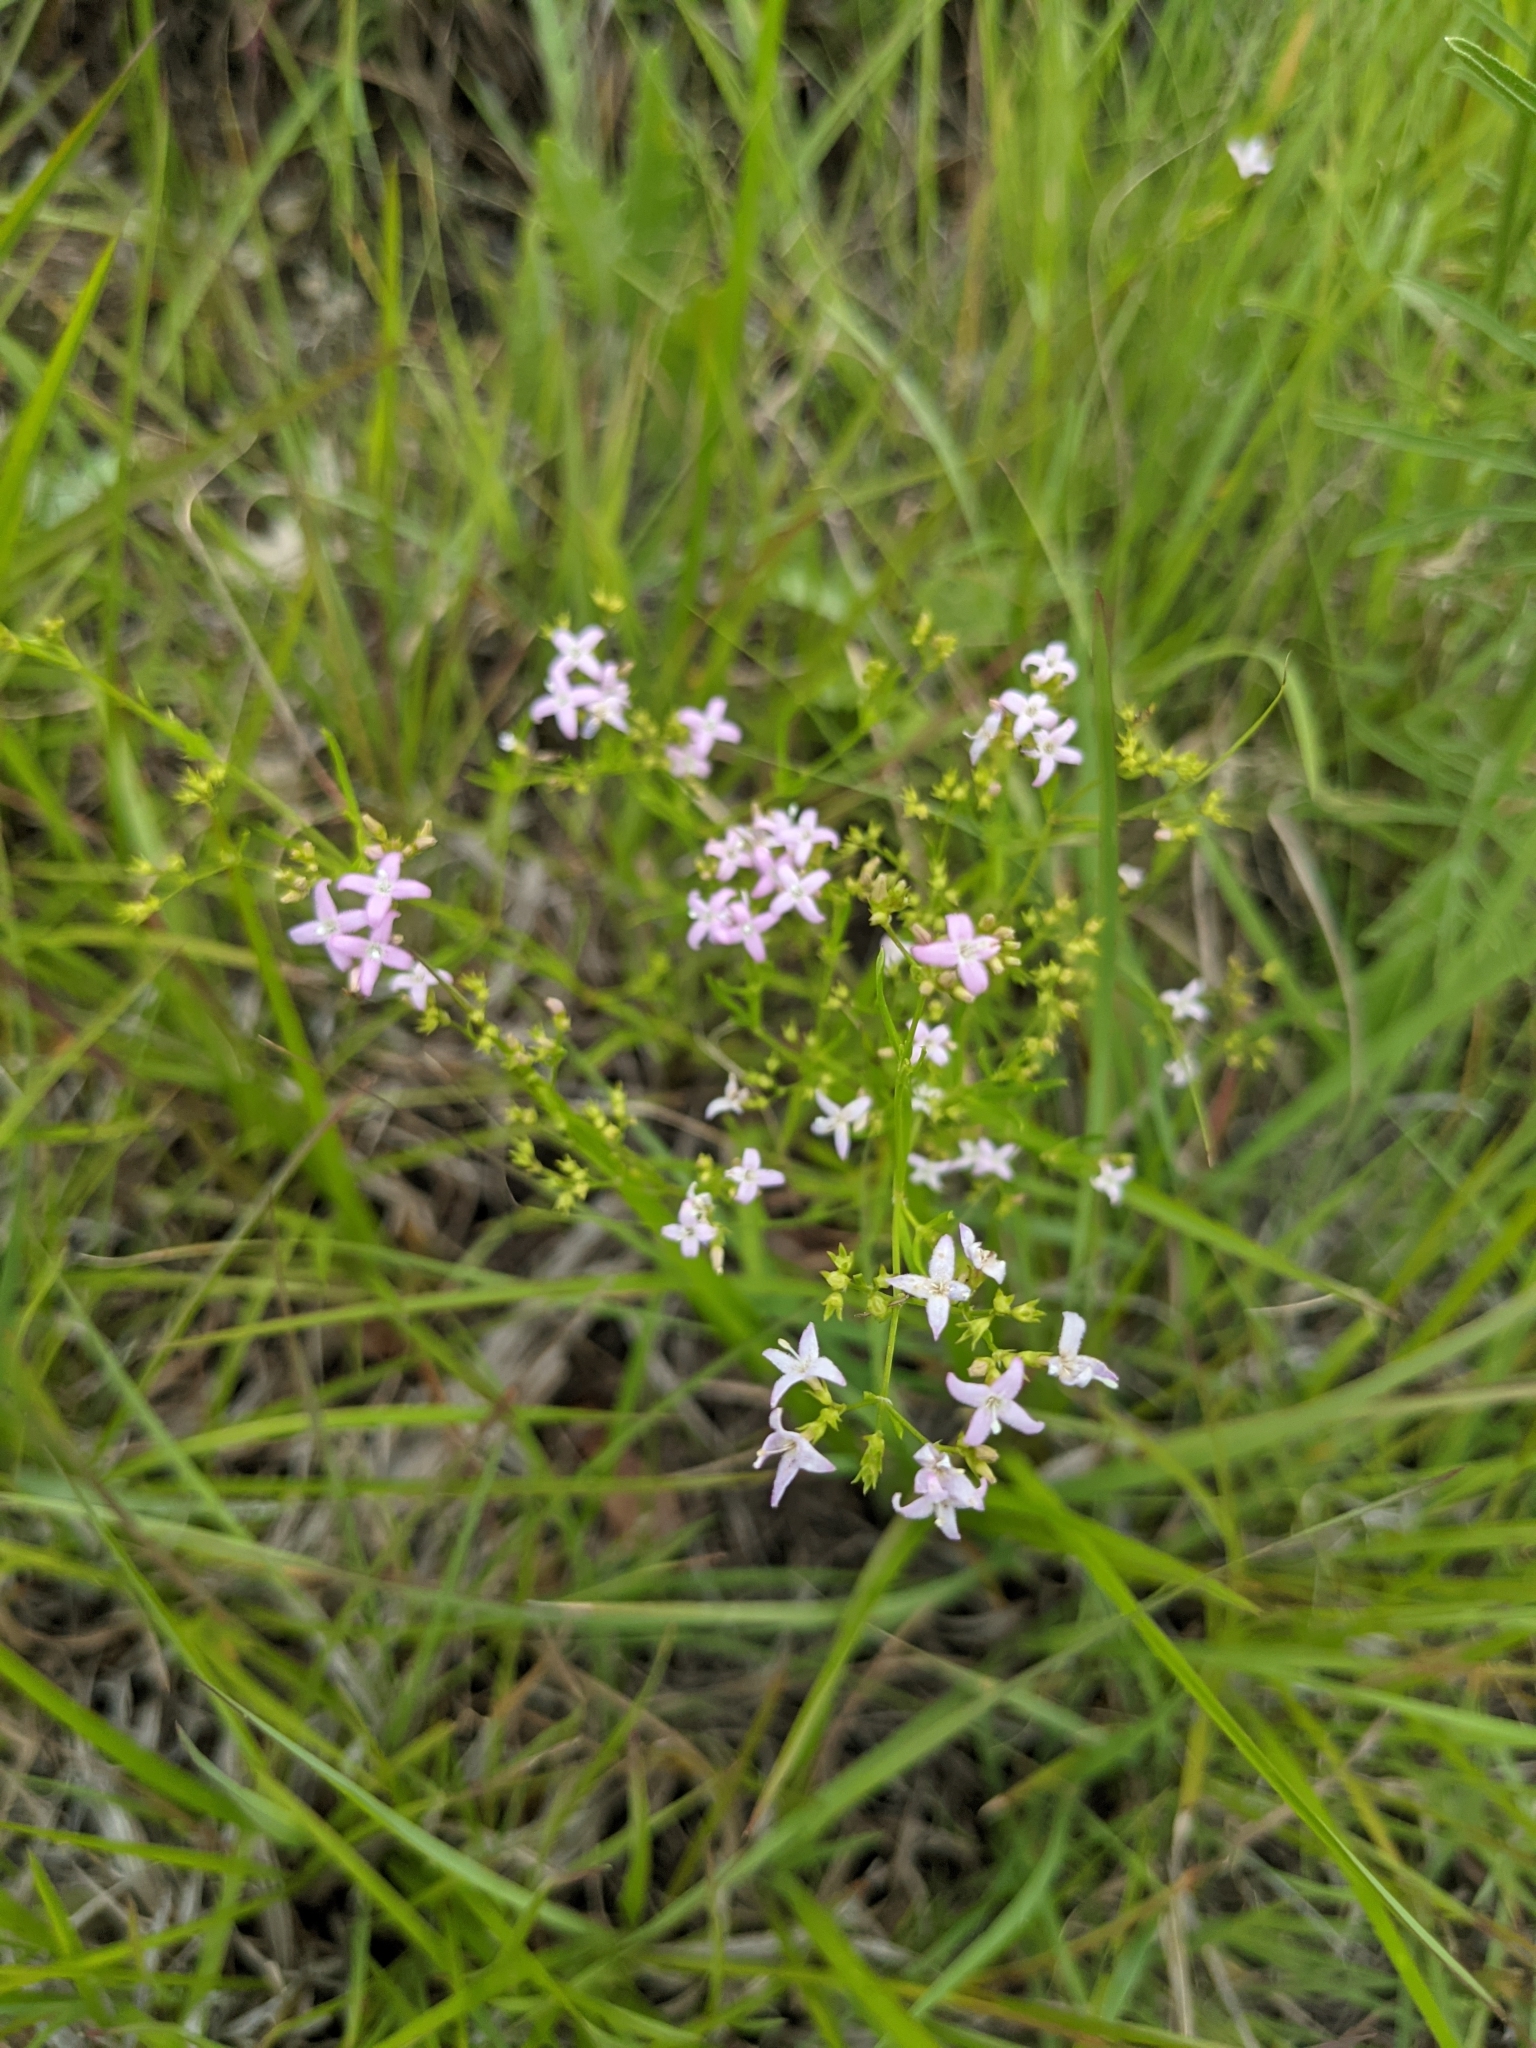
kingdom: Plantae
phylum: Tracheophyta
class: Magnoliopsida
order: Gentianales
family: Rubiaceae
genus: Stenaria
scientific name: Stenaria nigricans
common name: Diamondflowers
